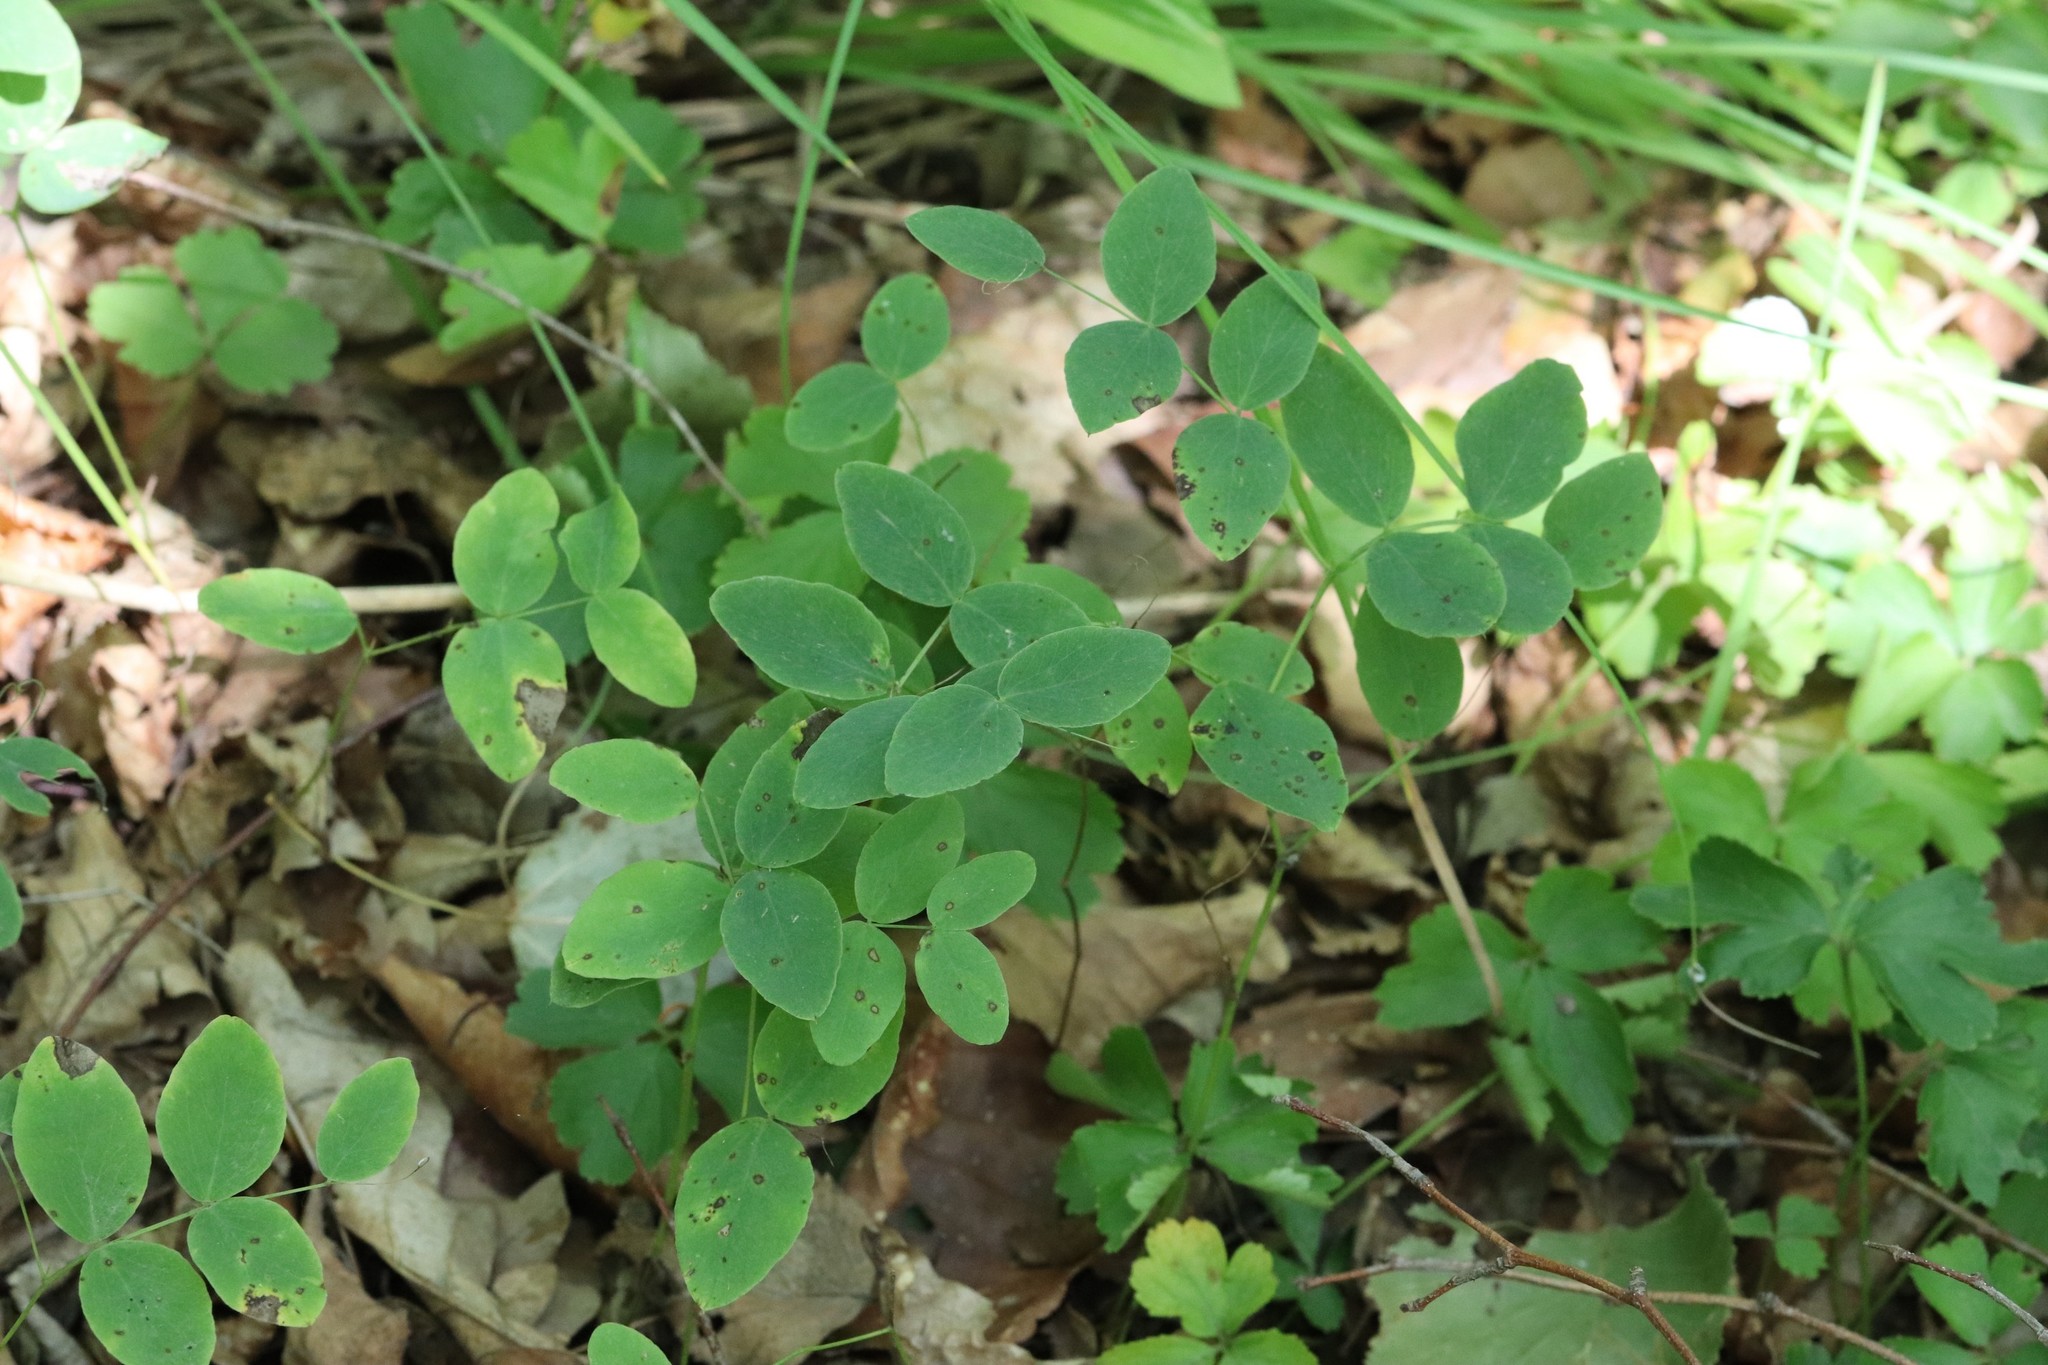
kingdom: Plantae
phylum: Tracheophyta
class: Magnoliopsida
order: Fabales
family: Fabaceae
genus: Lathyrus
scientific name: Lathyrus humilis
